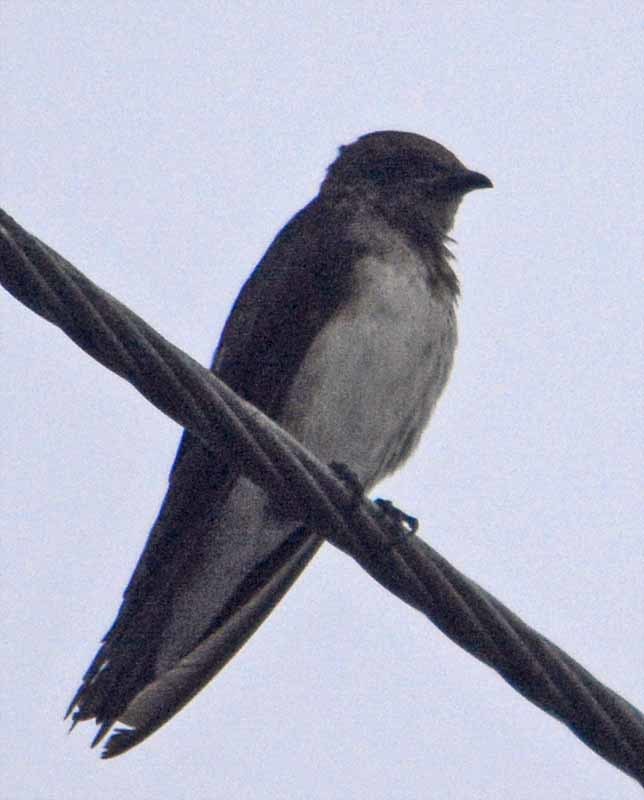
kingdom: Animalia
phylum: Chordata
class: Aves
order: Passeriformes
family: Hirundinidae
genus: Progne
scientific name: Progne chalybea
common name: Grey-breasted martin
